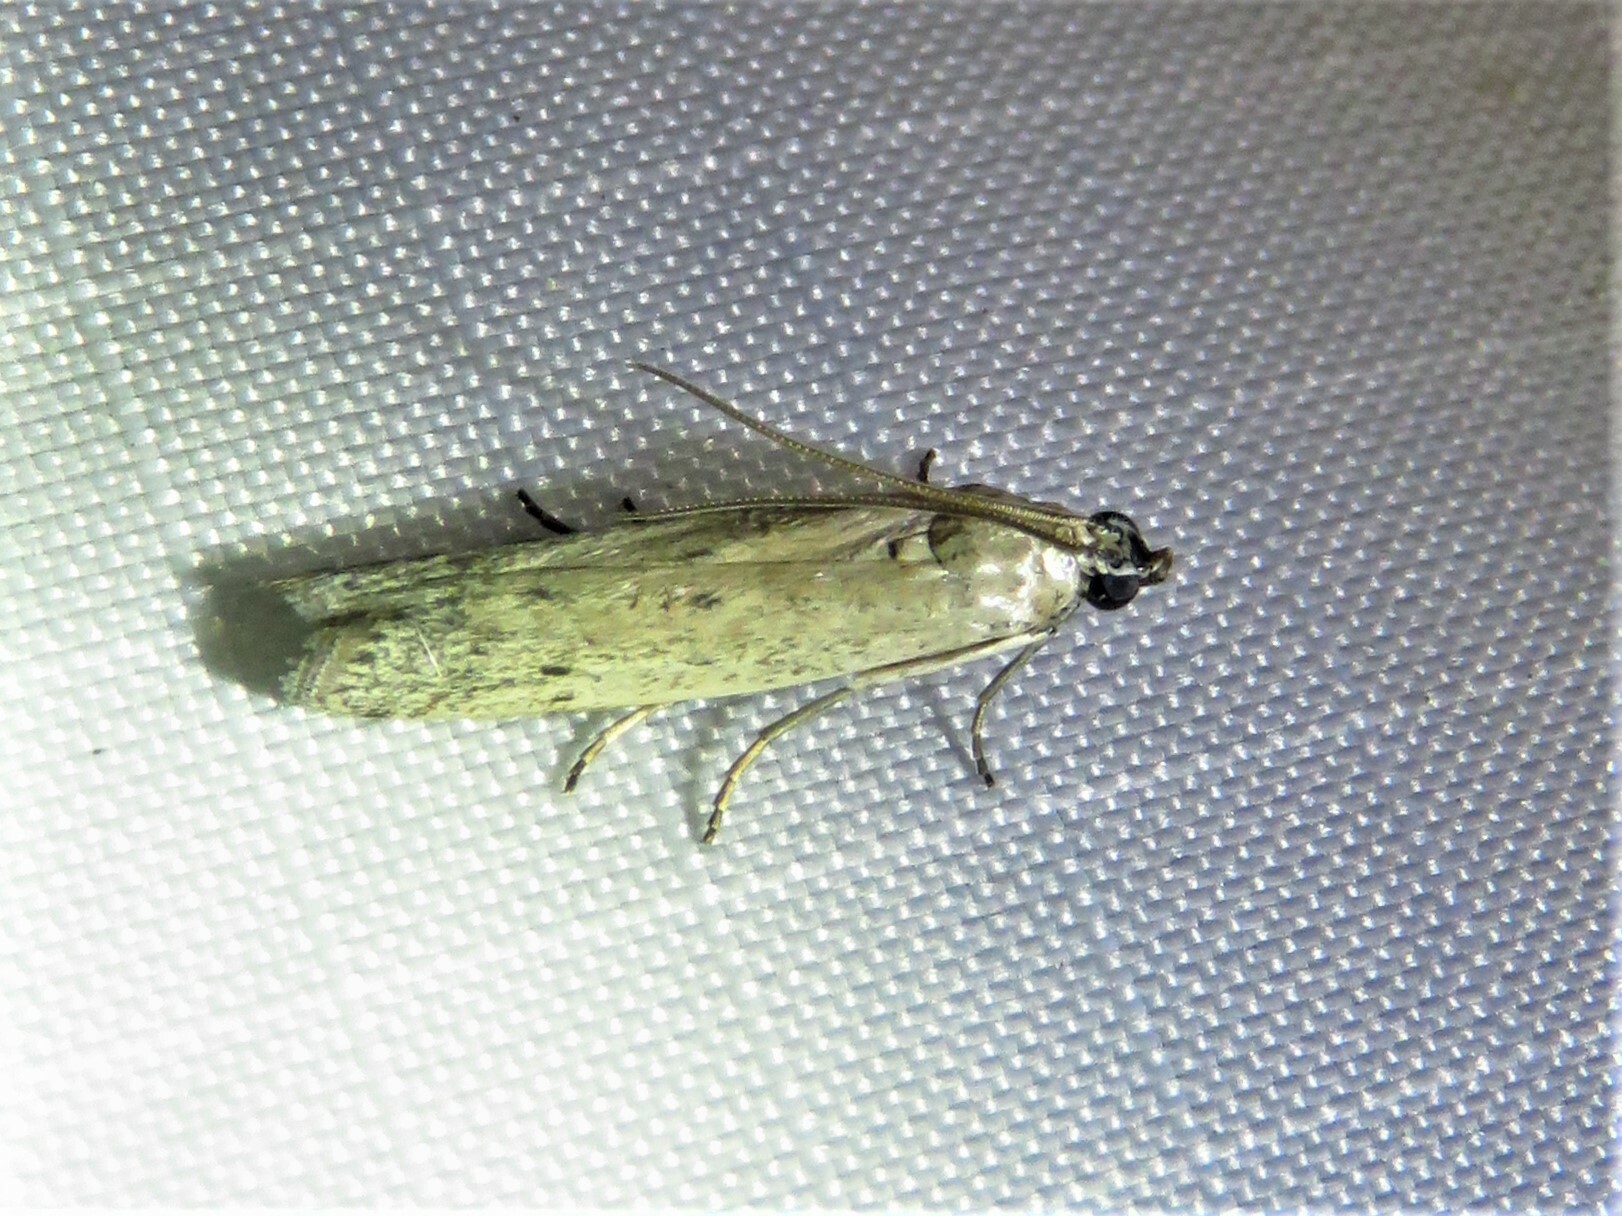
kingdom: Animalia
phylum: Arthropoda
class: Insecta
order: Lepidoptera
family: Pyralidae
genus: Homoeosoma
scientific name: Homoeosoma electella
